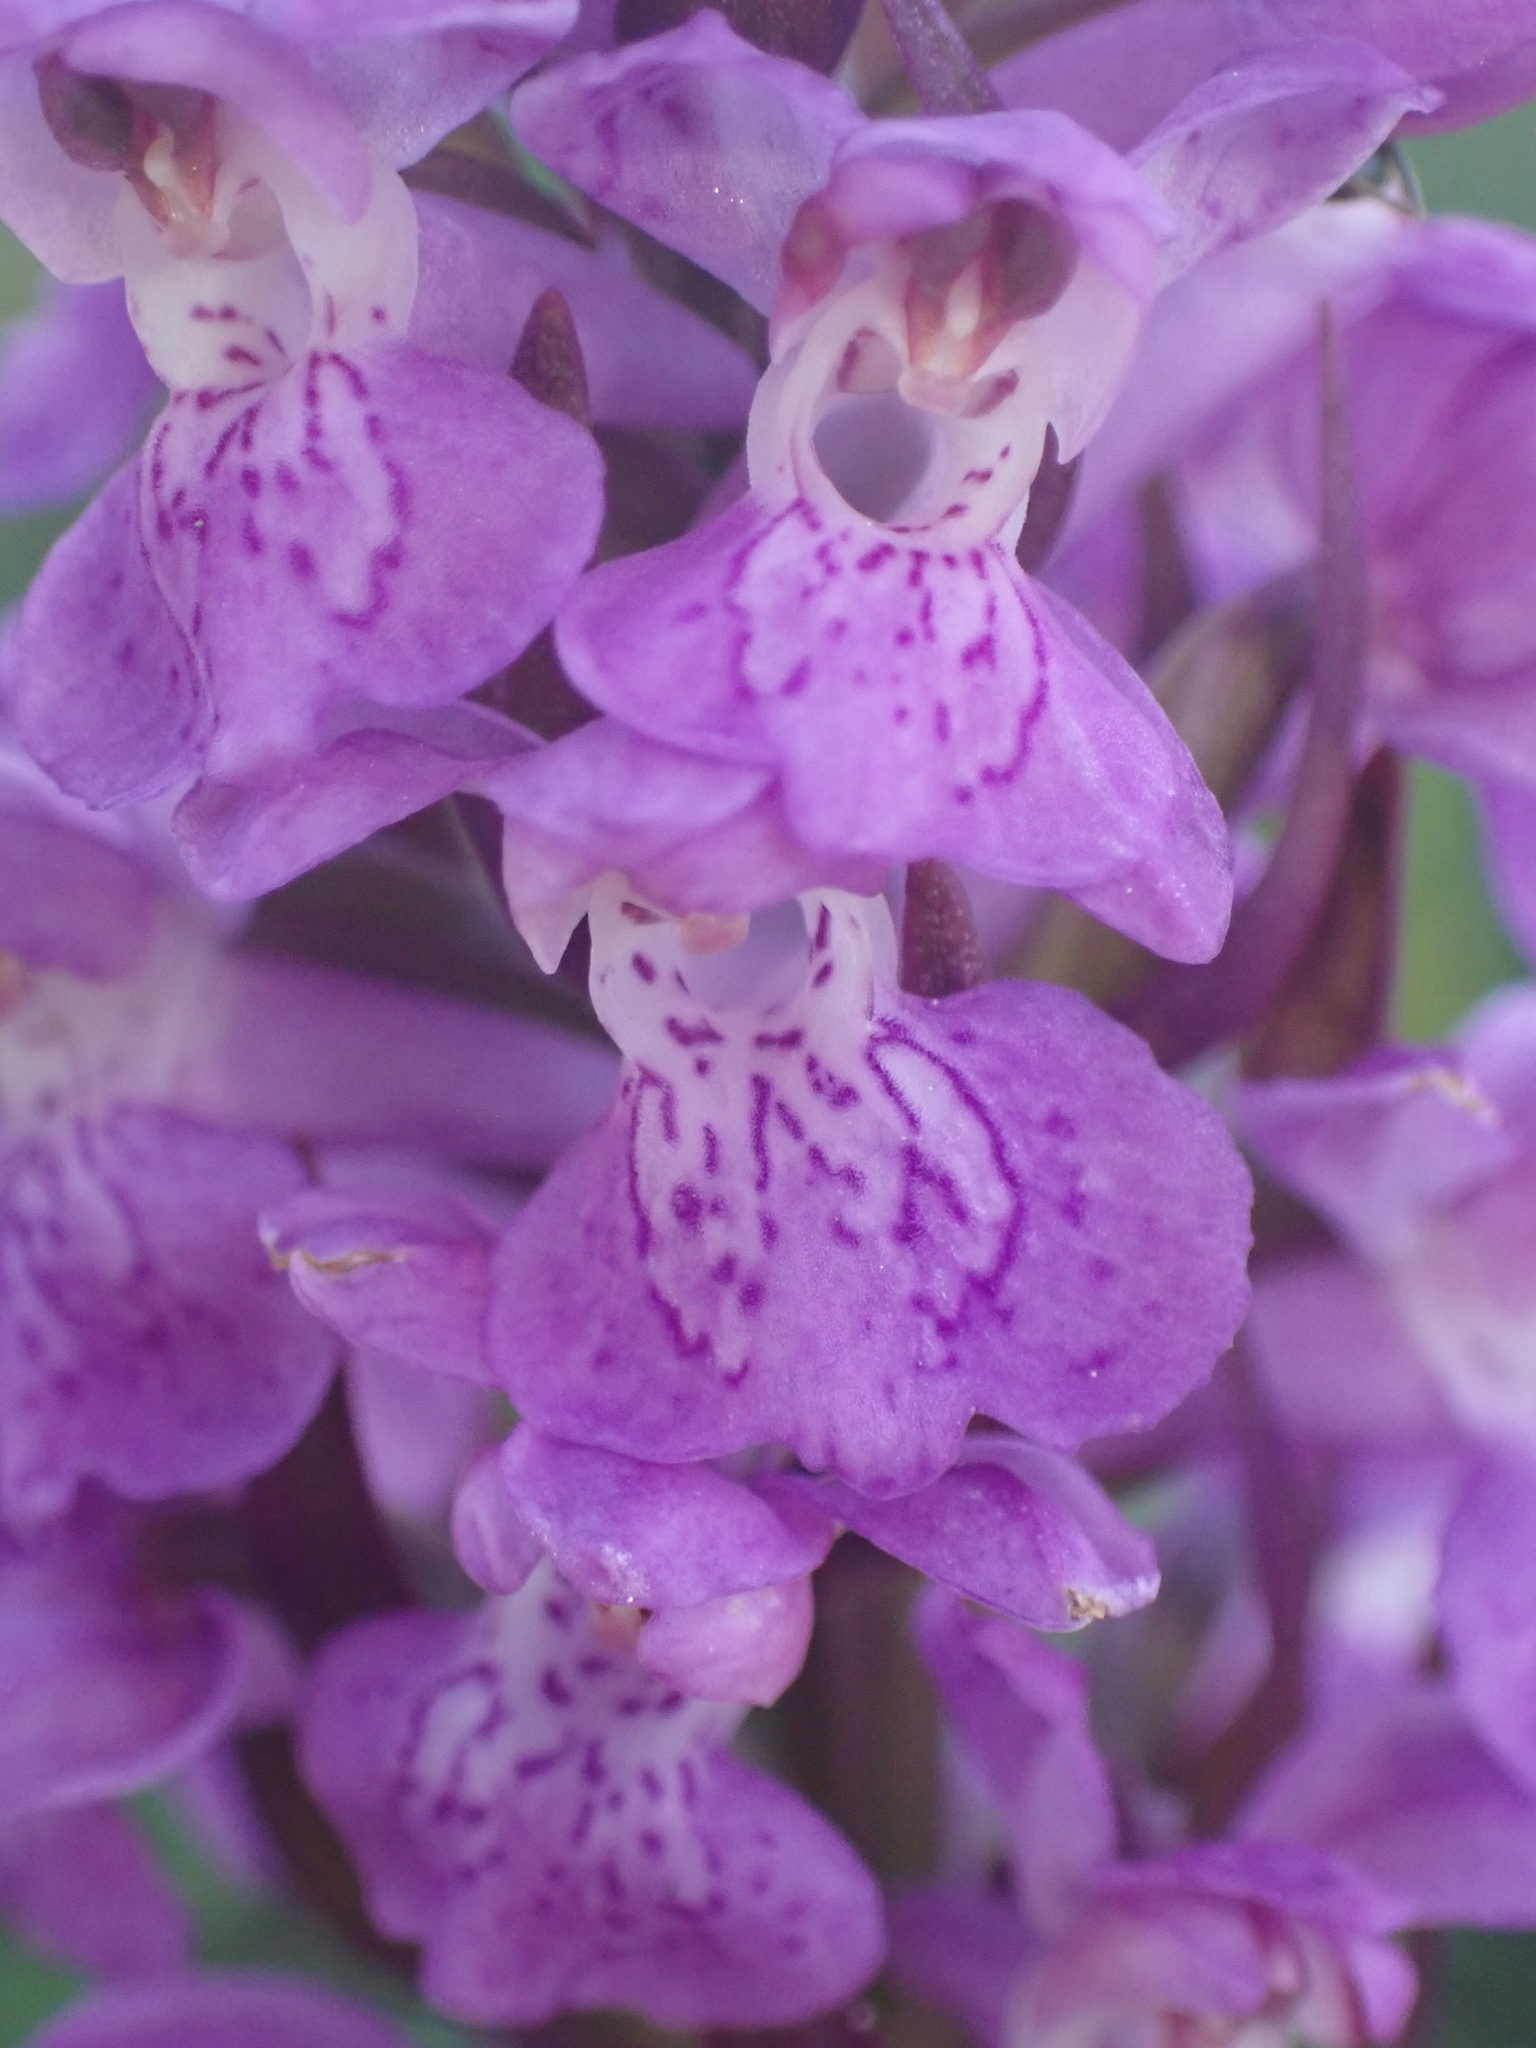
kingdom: Plantae
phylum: Tracheophyta
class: Liliopsida
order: Asparagales
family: Orchidaceae
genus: Dactylorhiza
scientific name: Dactylorhiza majalis
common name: Marsh orchid
